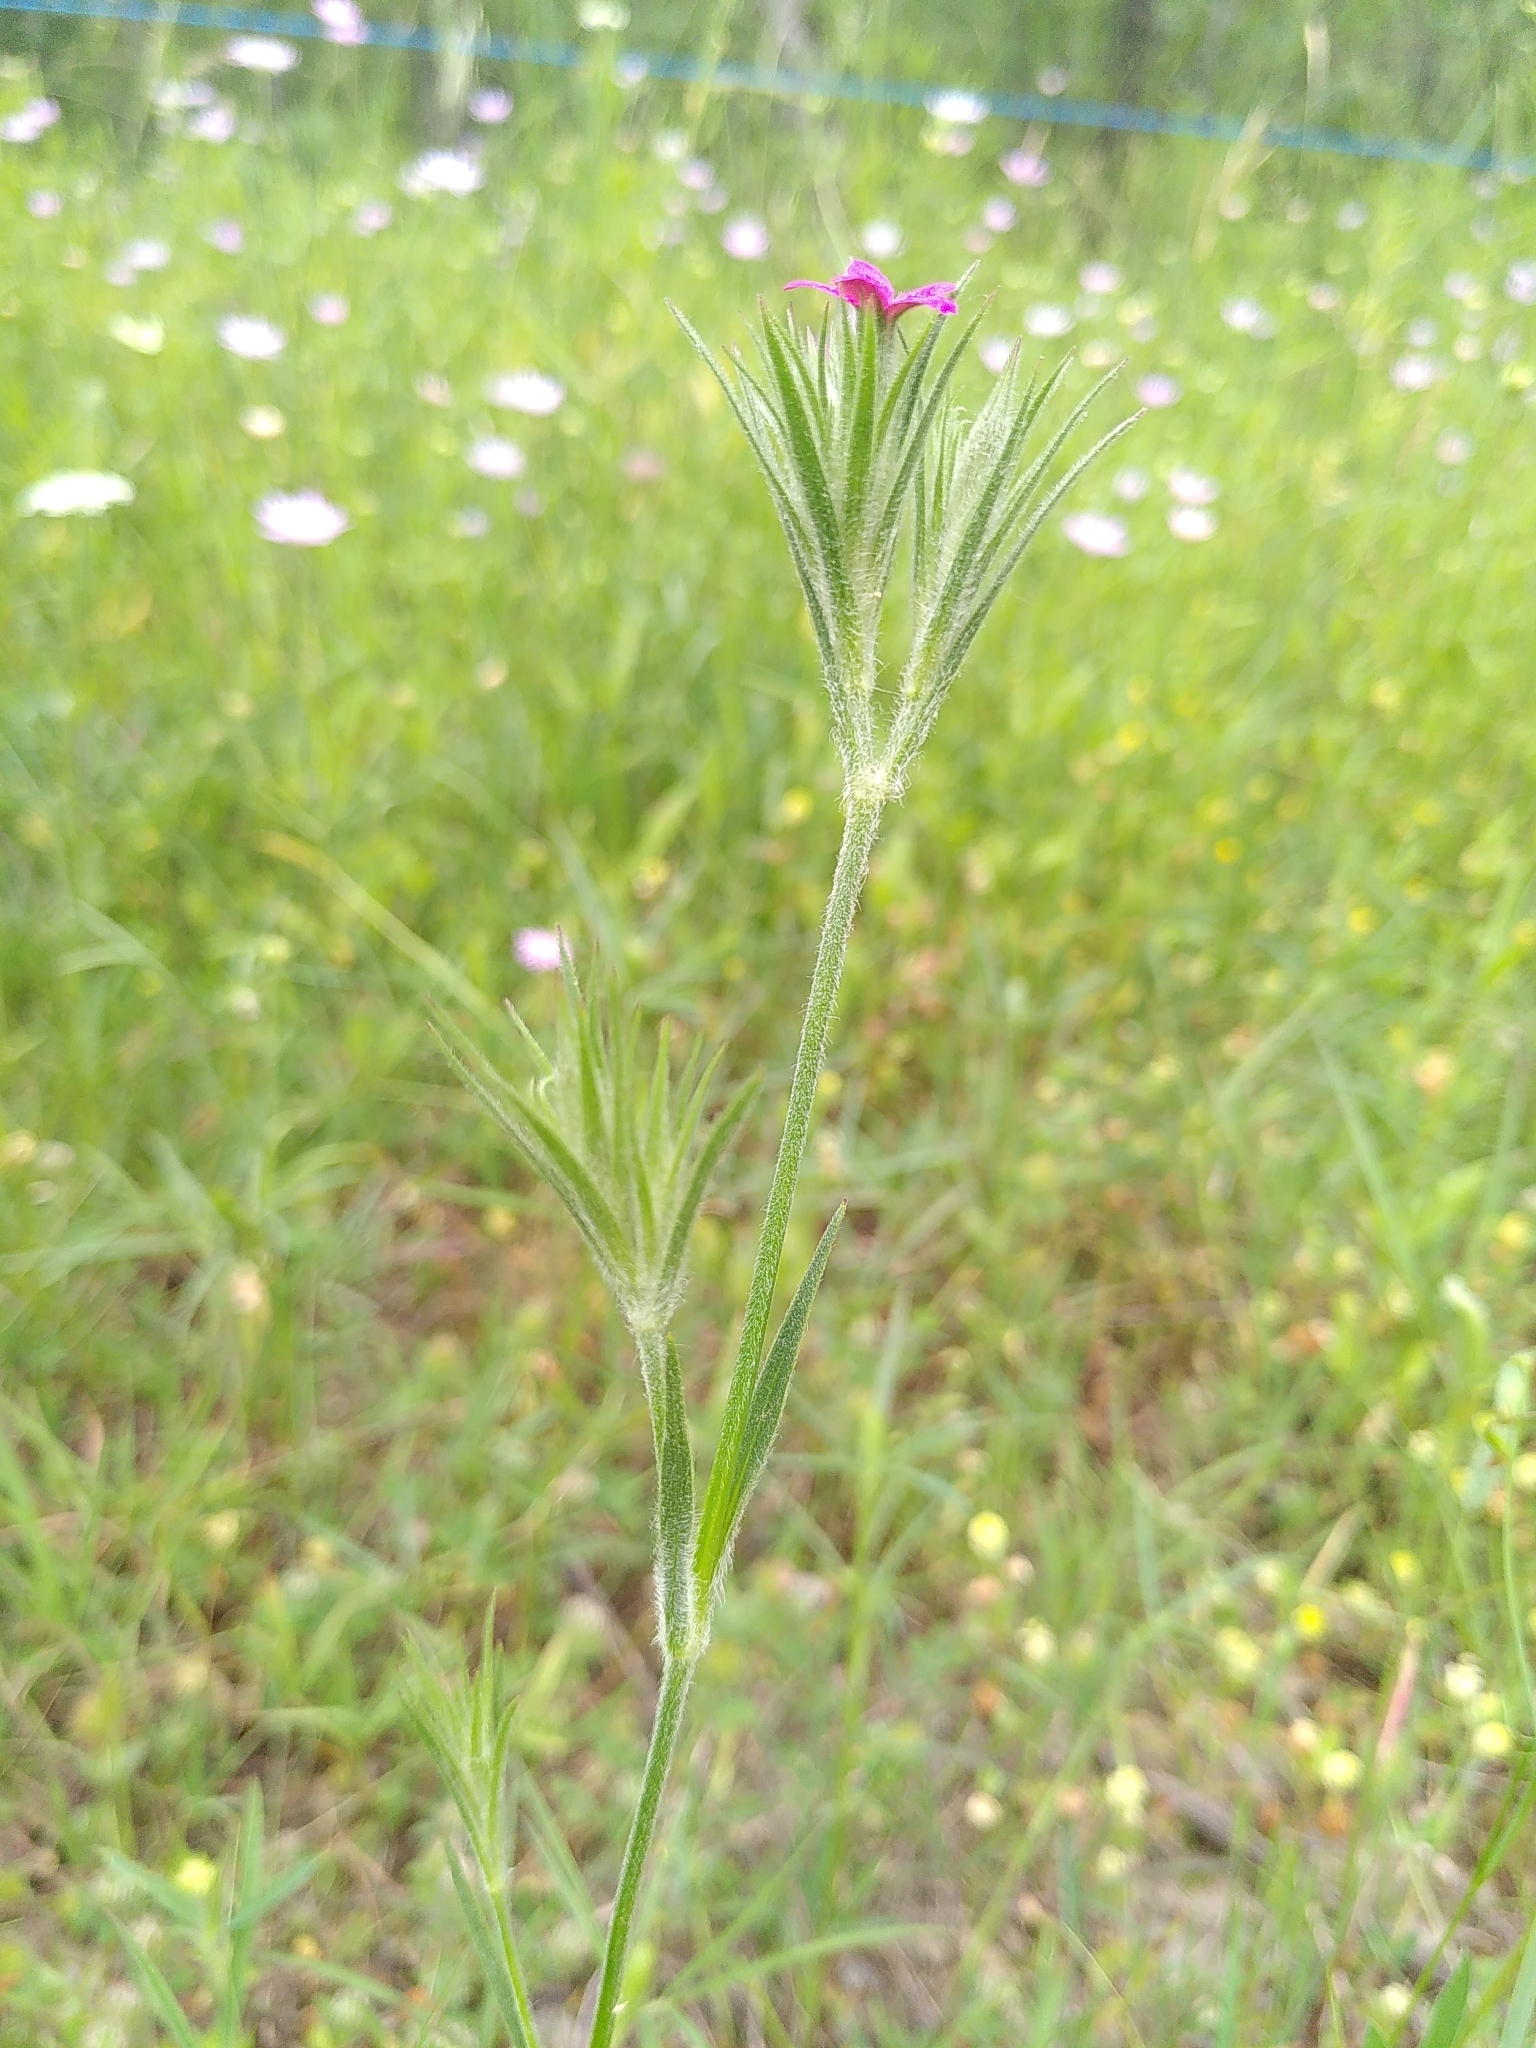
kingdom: Plantae
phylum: Tracheophyta
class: Magnoliopsida
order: Caryophyllales
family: Caryophyllaceae
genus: Dianthus
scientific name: Dianthus armeria
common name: Deptford pink
